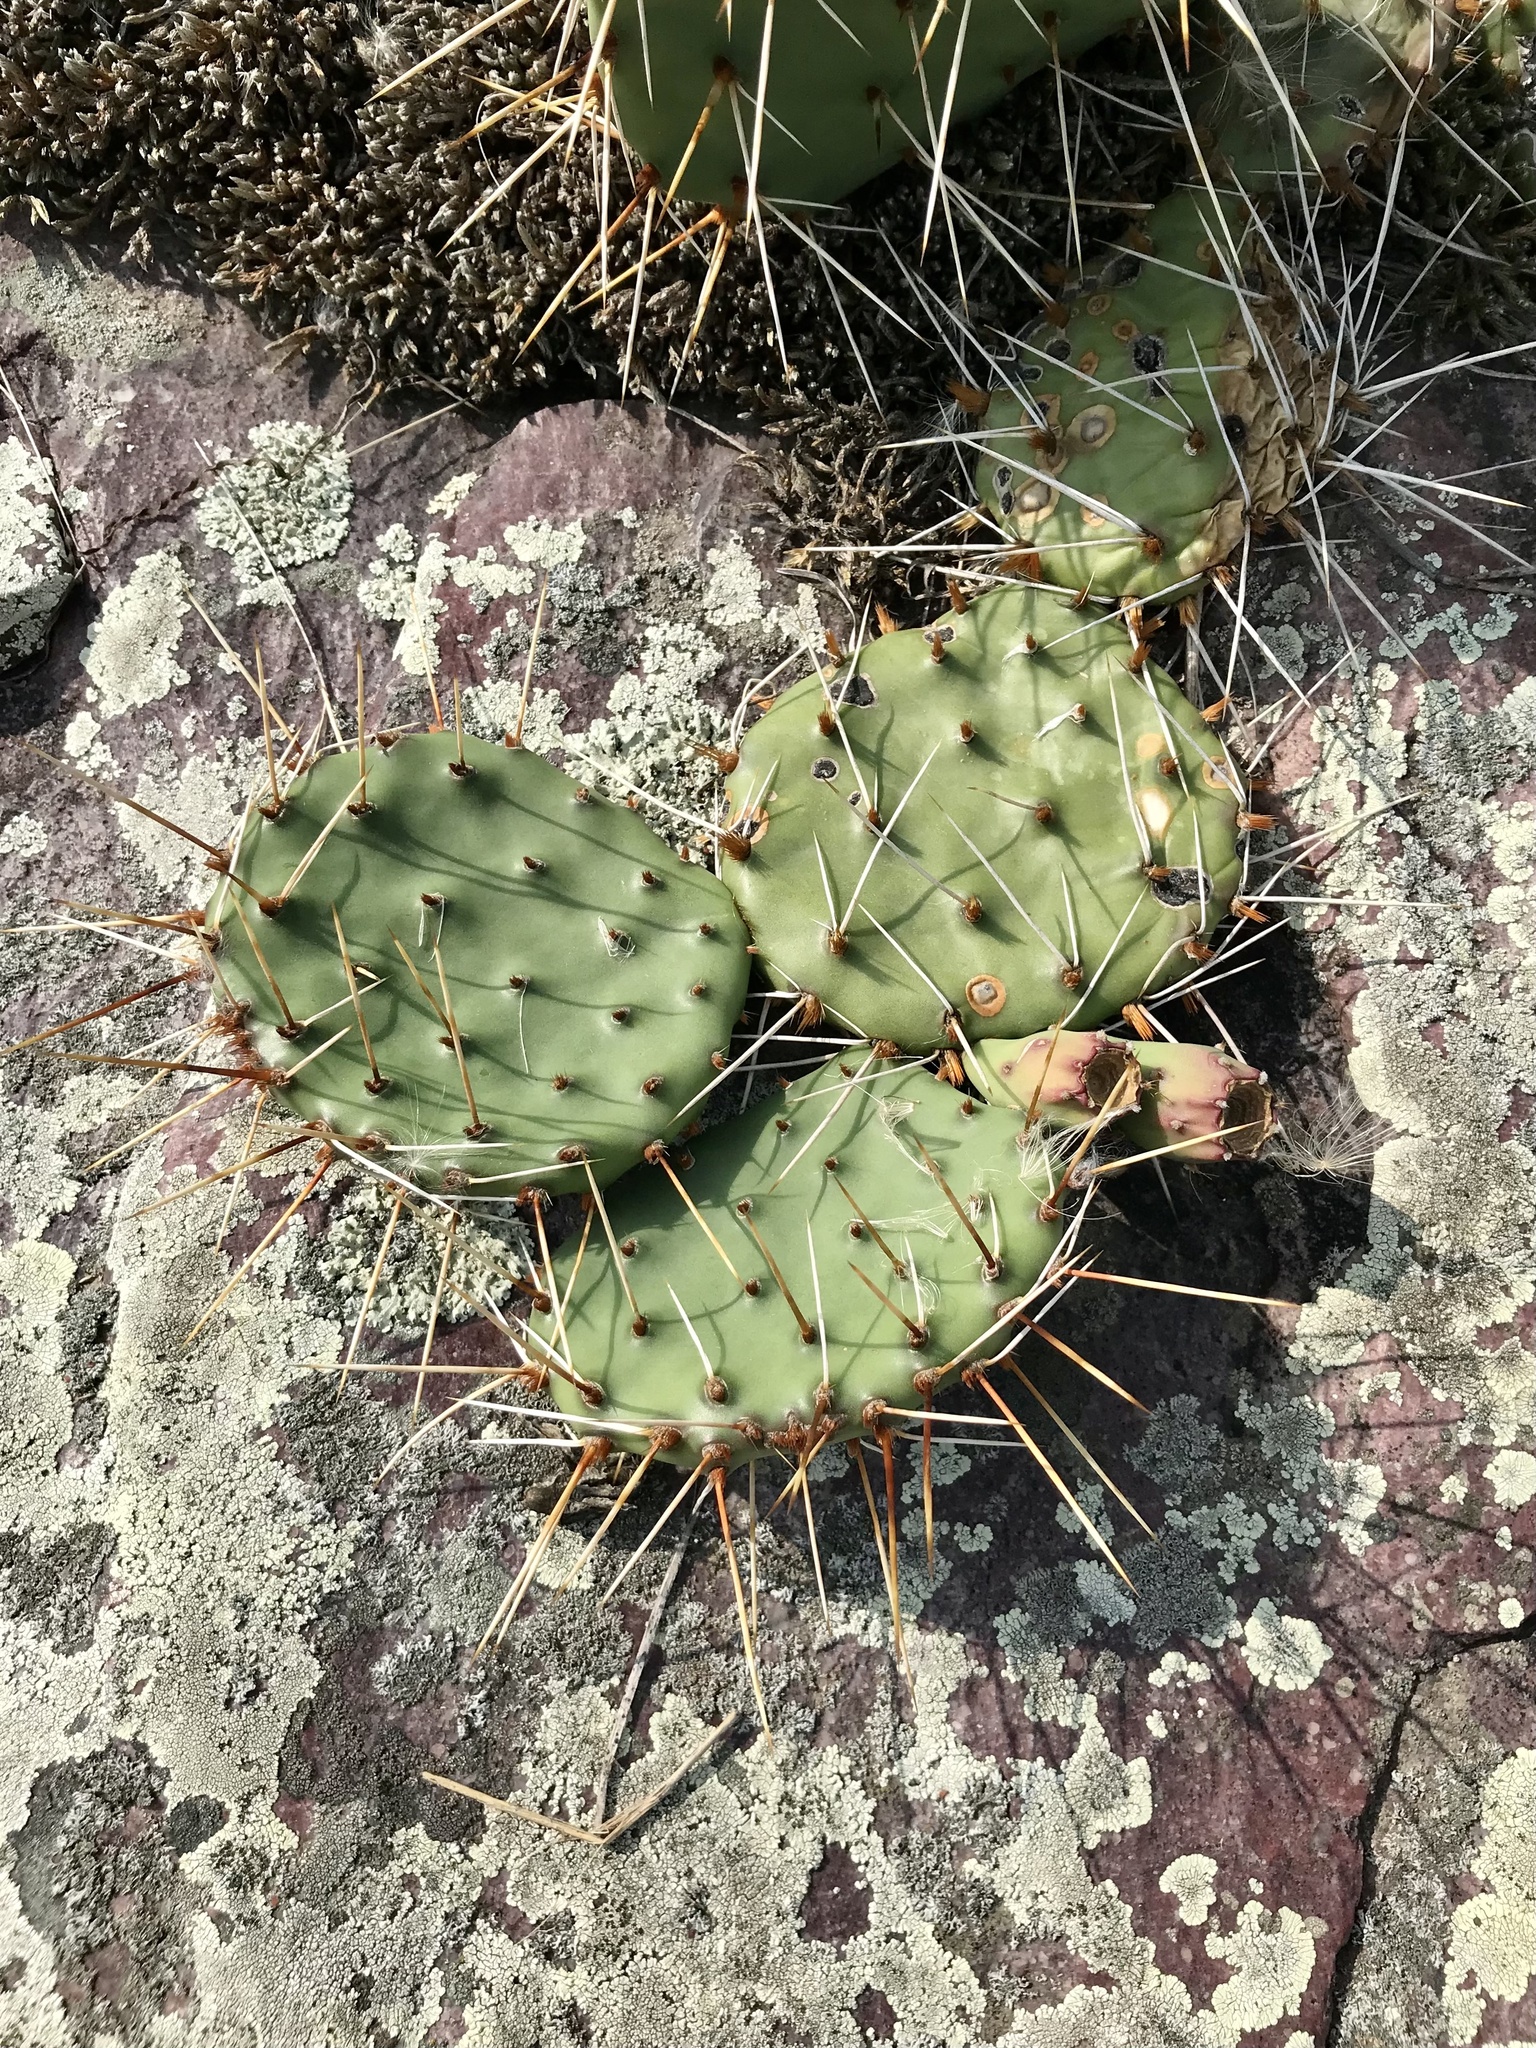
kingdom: Plantae
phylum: Tracheophyta
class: Magnoliopsida
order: Caryophyllales
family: Cactaceae
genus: Opuntia
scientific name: Opuntia macrorhiza
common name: Grassland pricklypear
